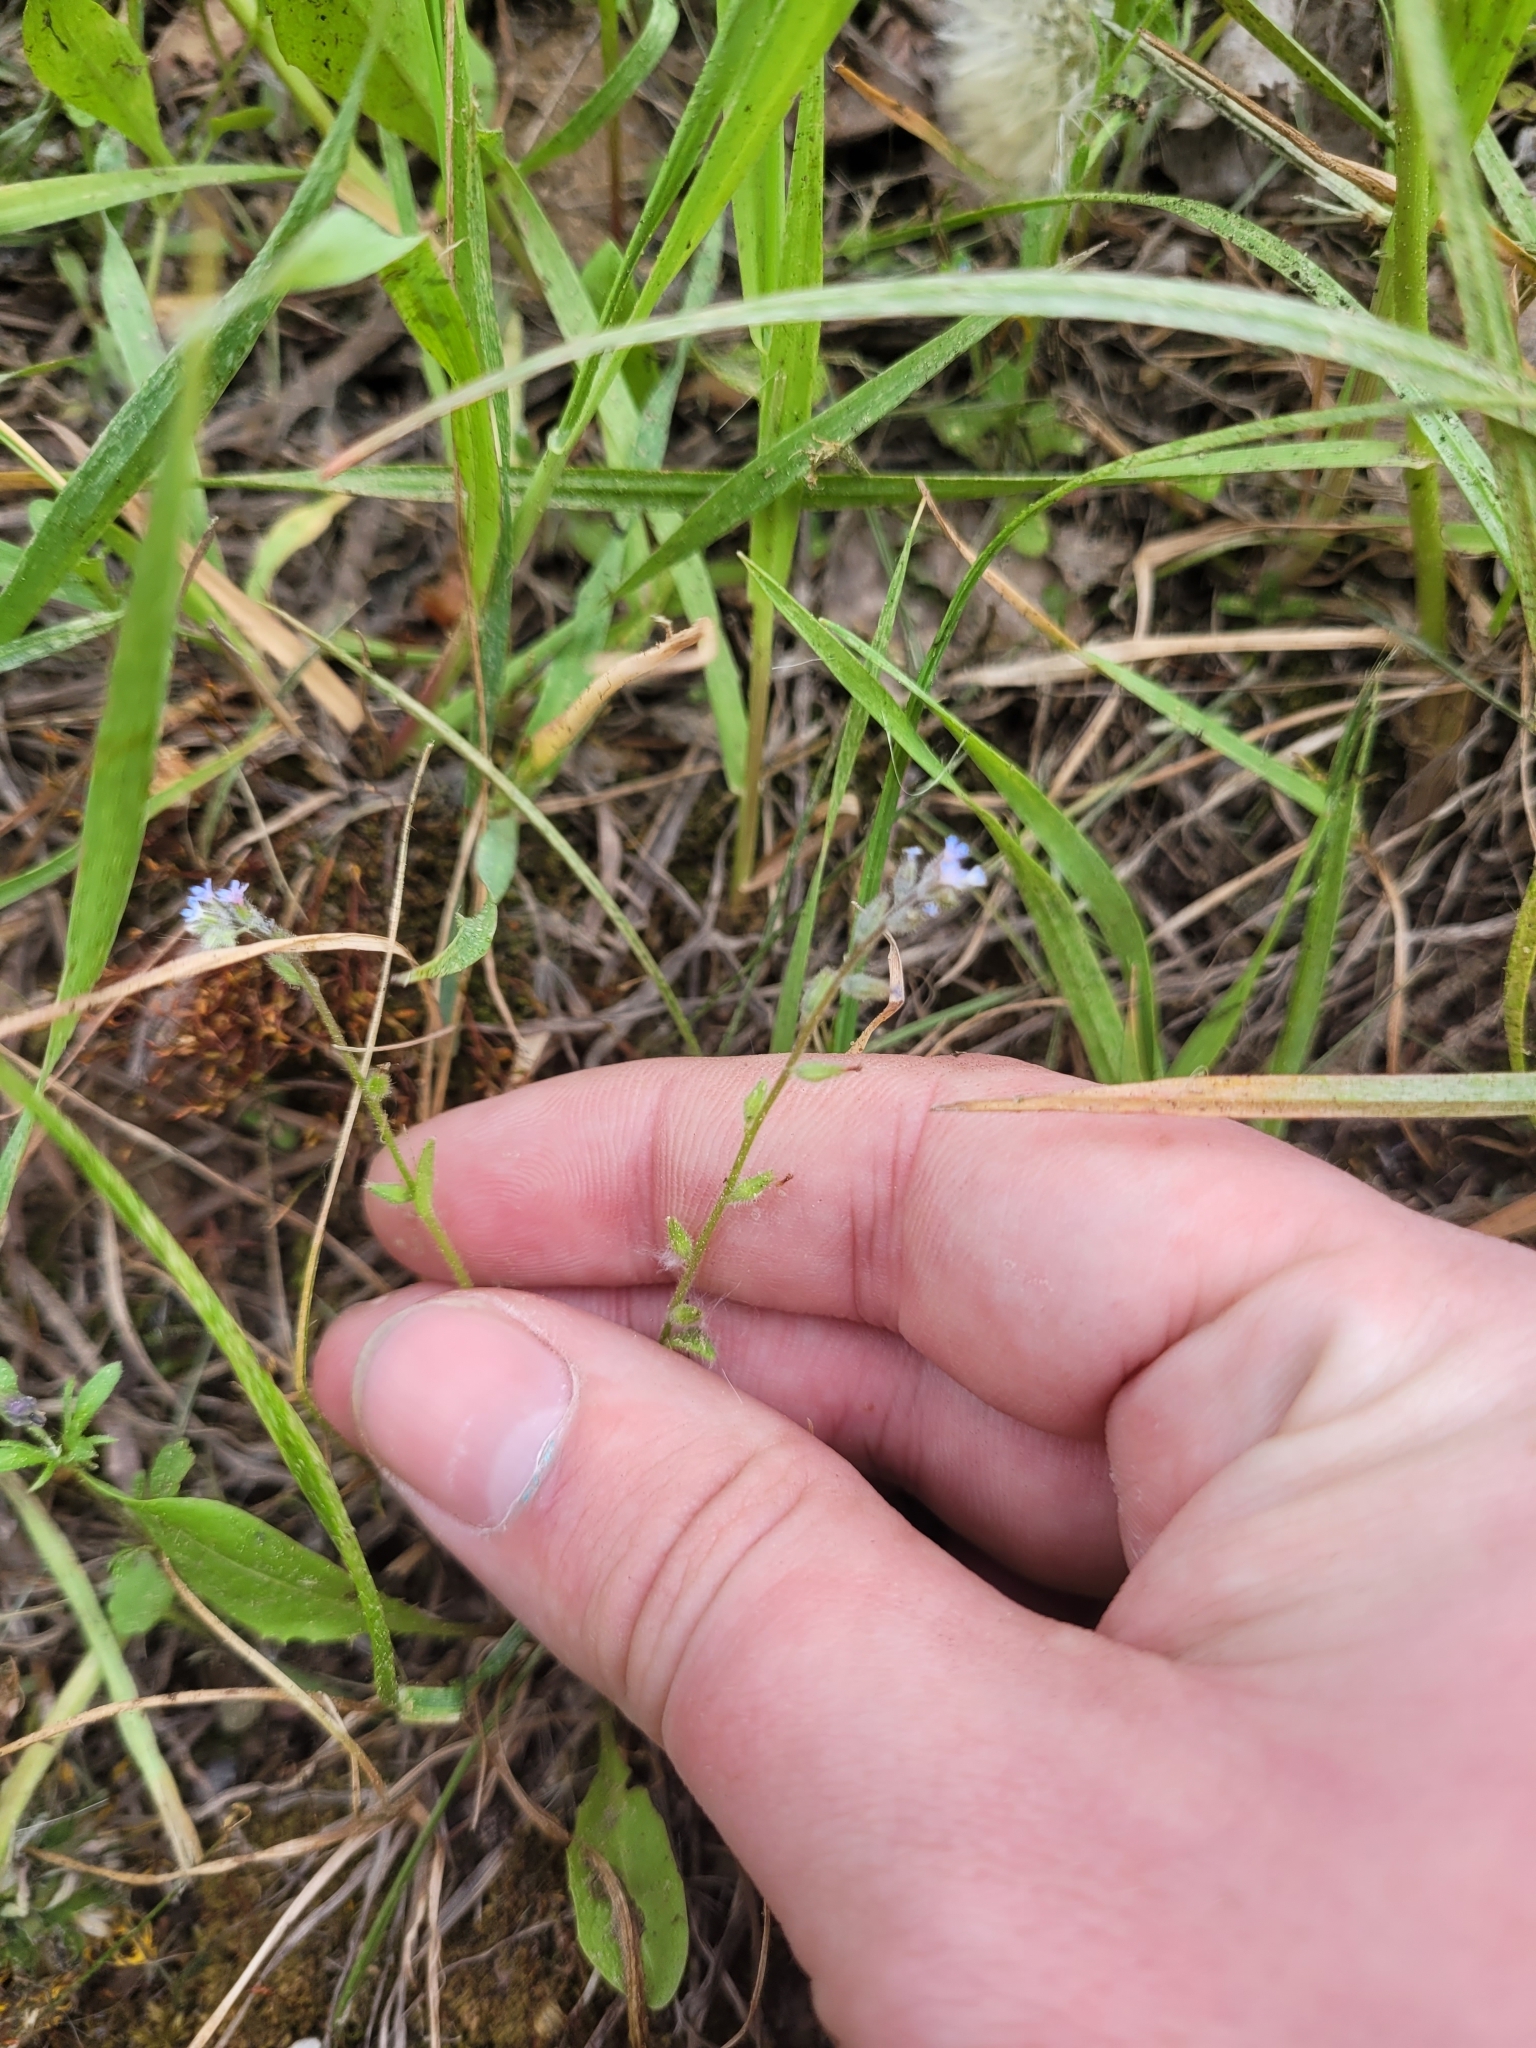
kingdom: Plantae
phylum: Tracheophyta
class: Magnoliopsida
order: Boraginales
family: Boraginaceae
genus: Myosotis
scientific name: Myosotis stricta
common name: Strict forget-me-not
